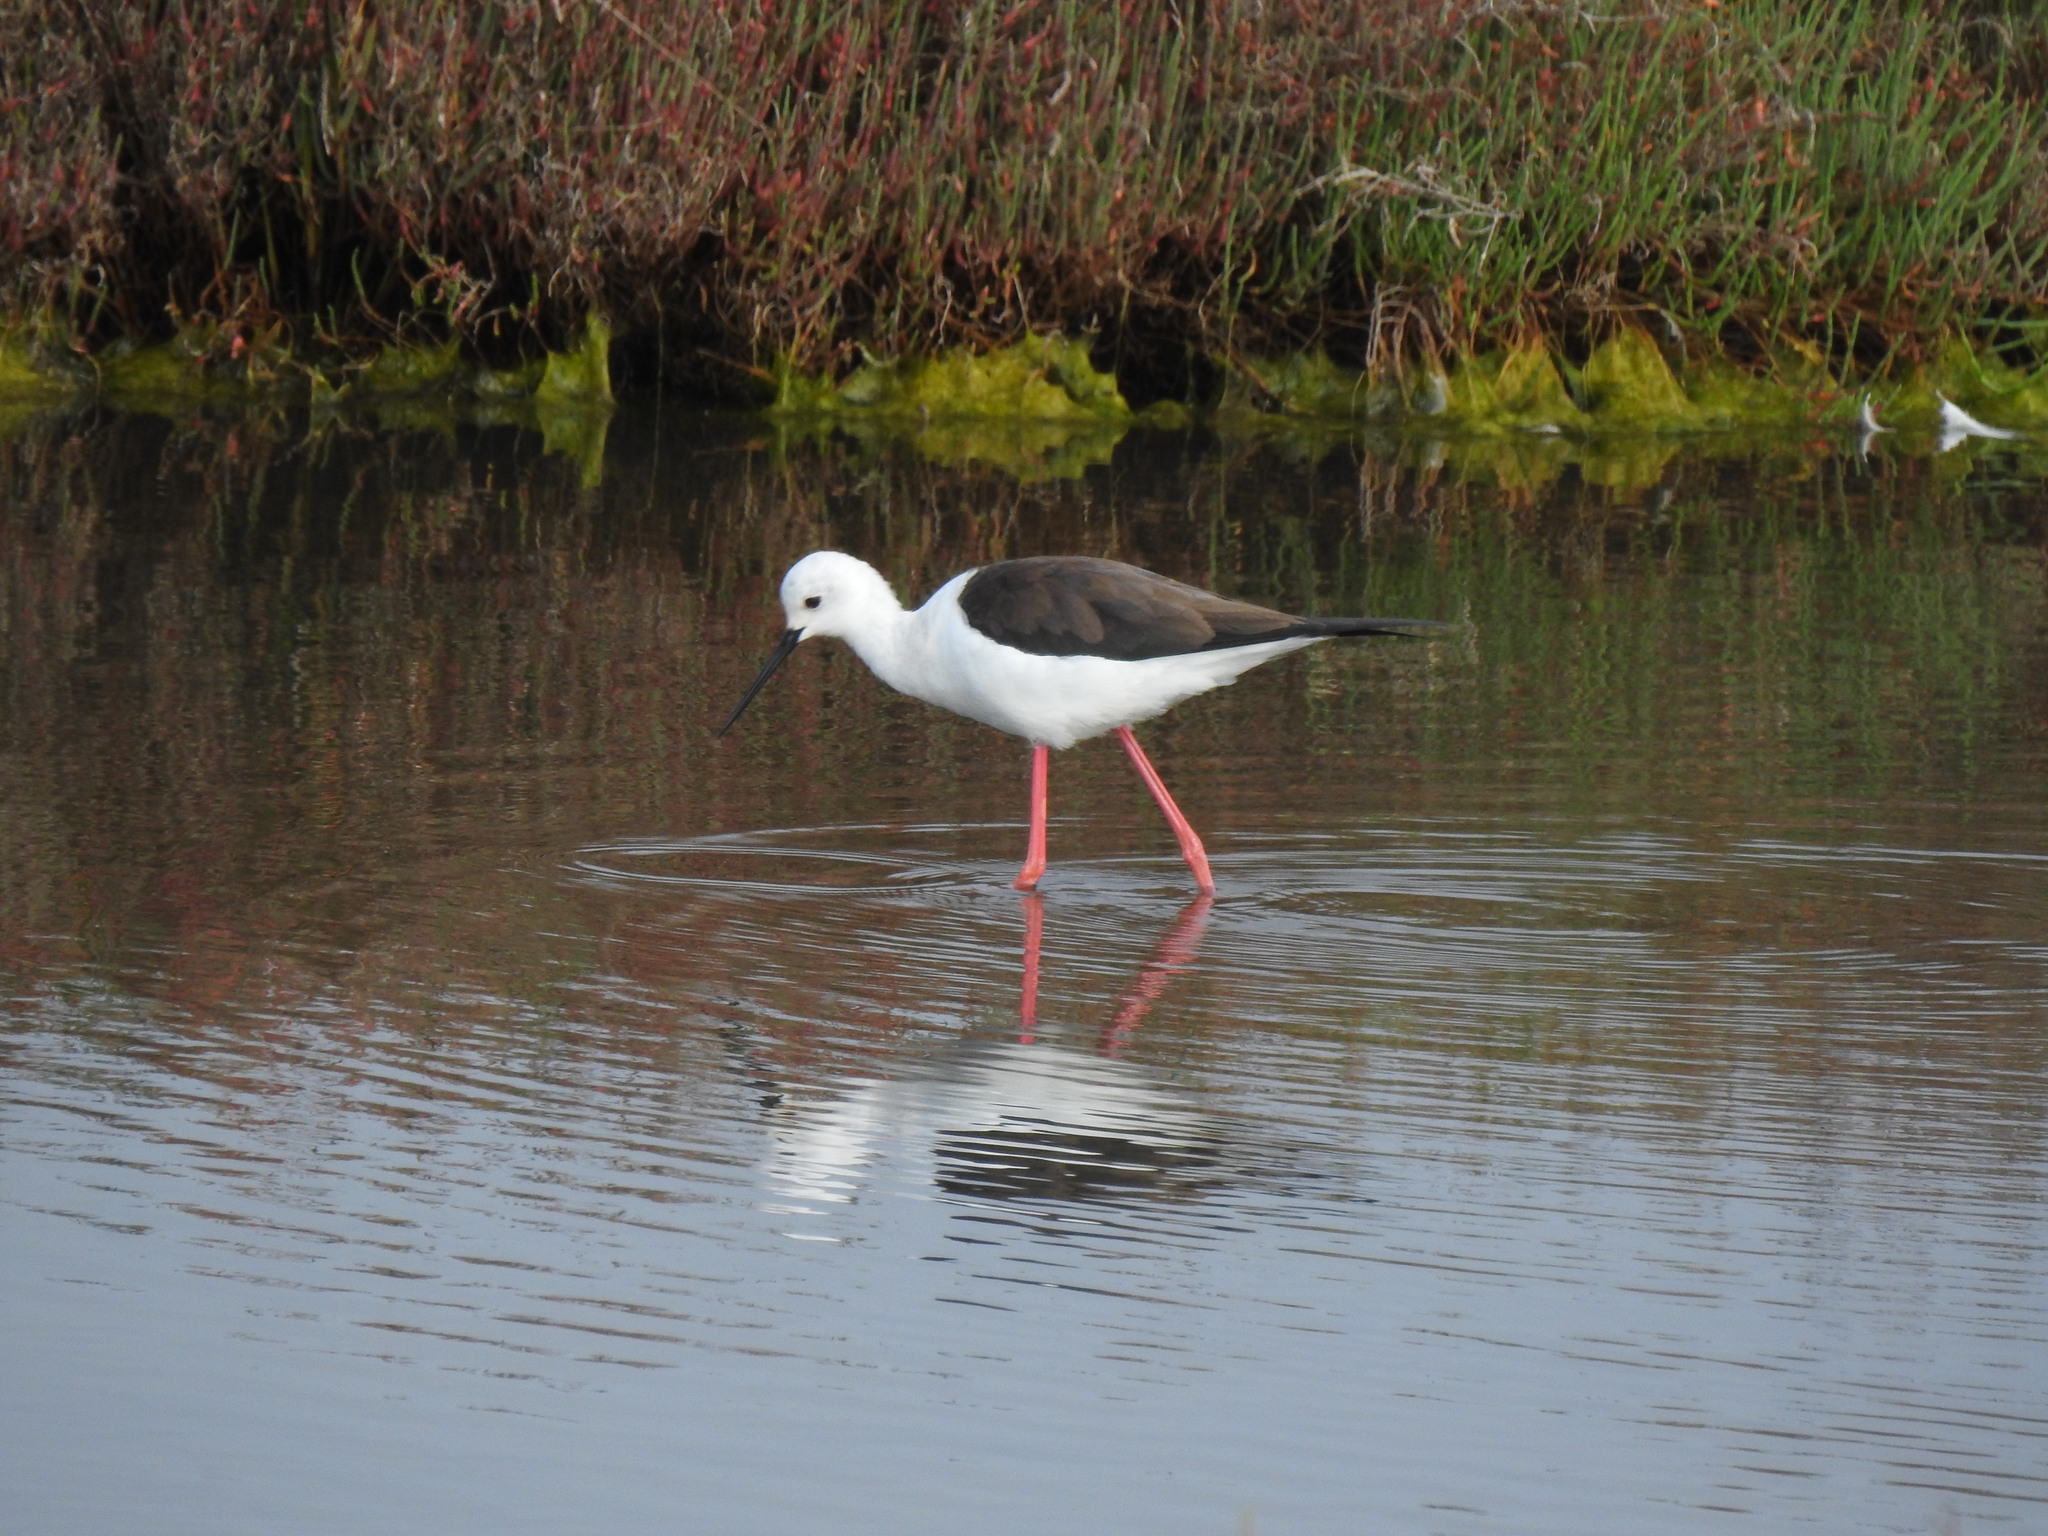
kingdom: Animalia
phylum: Chordata
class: Aves
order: Charadriiformes
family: Recurvirostridae
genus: Himantopus
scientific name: Himantopus himantopus
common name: Black-winged stilt
